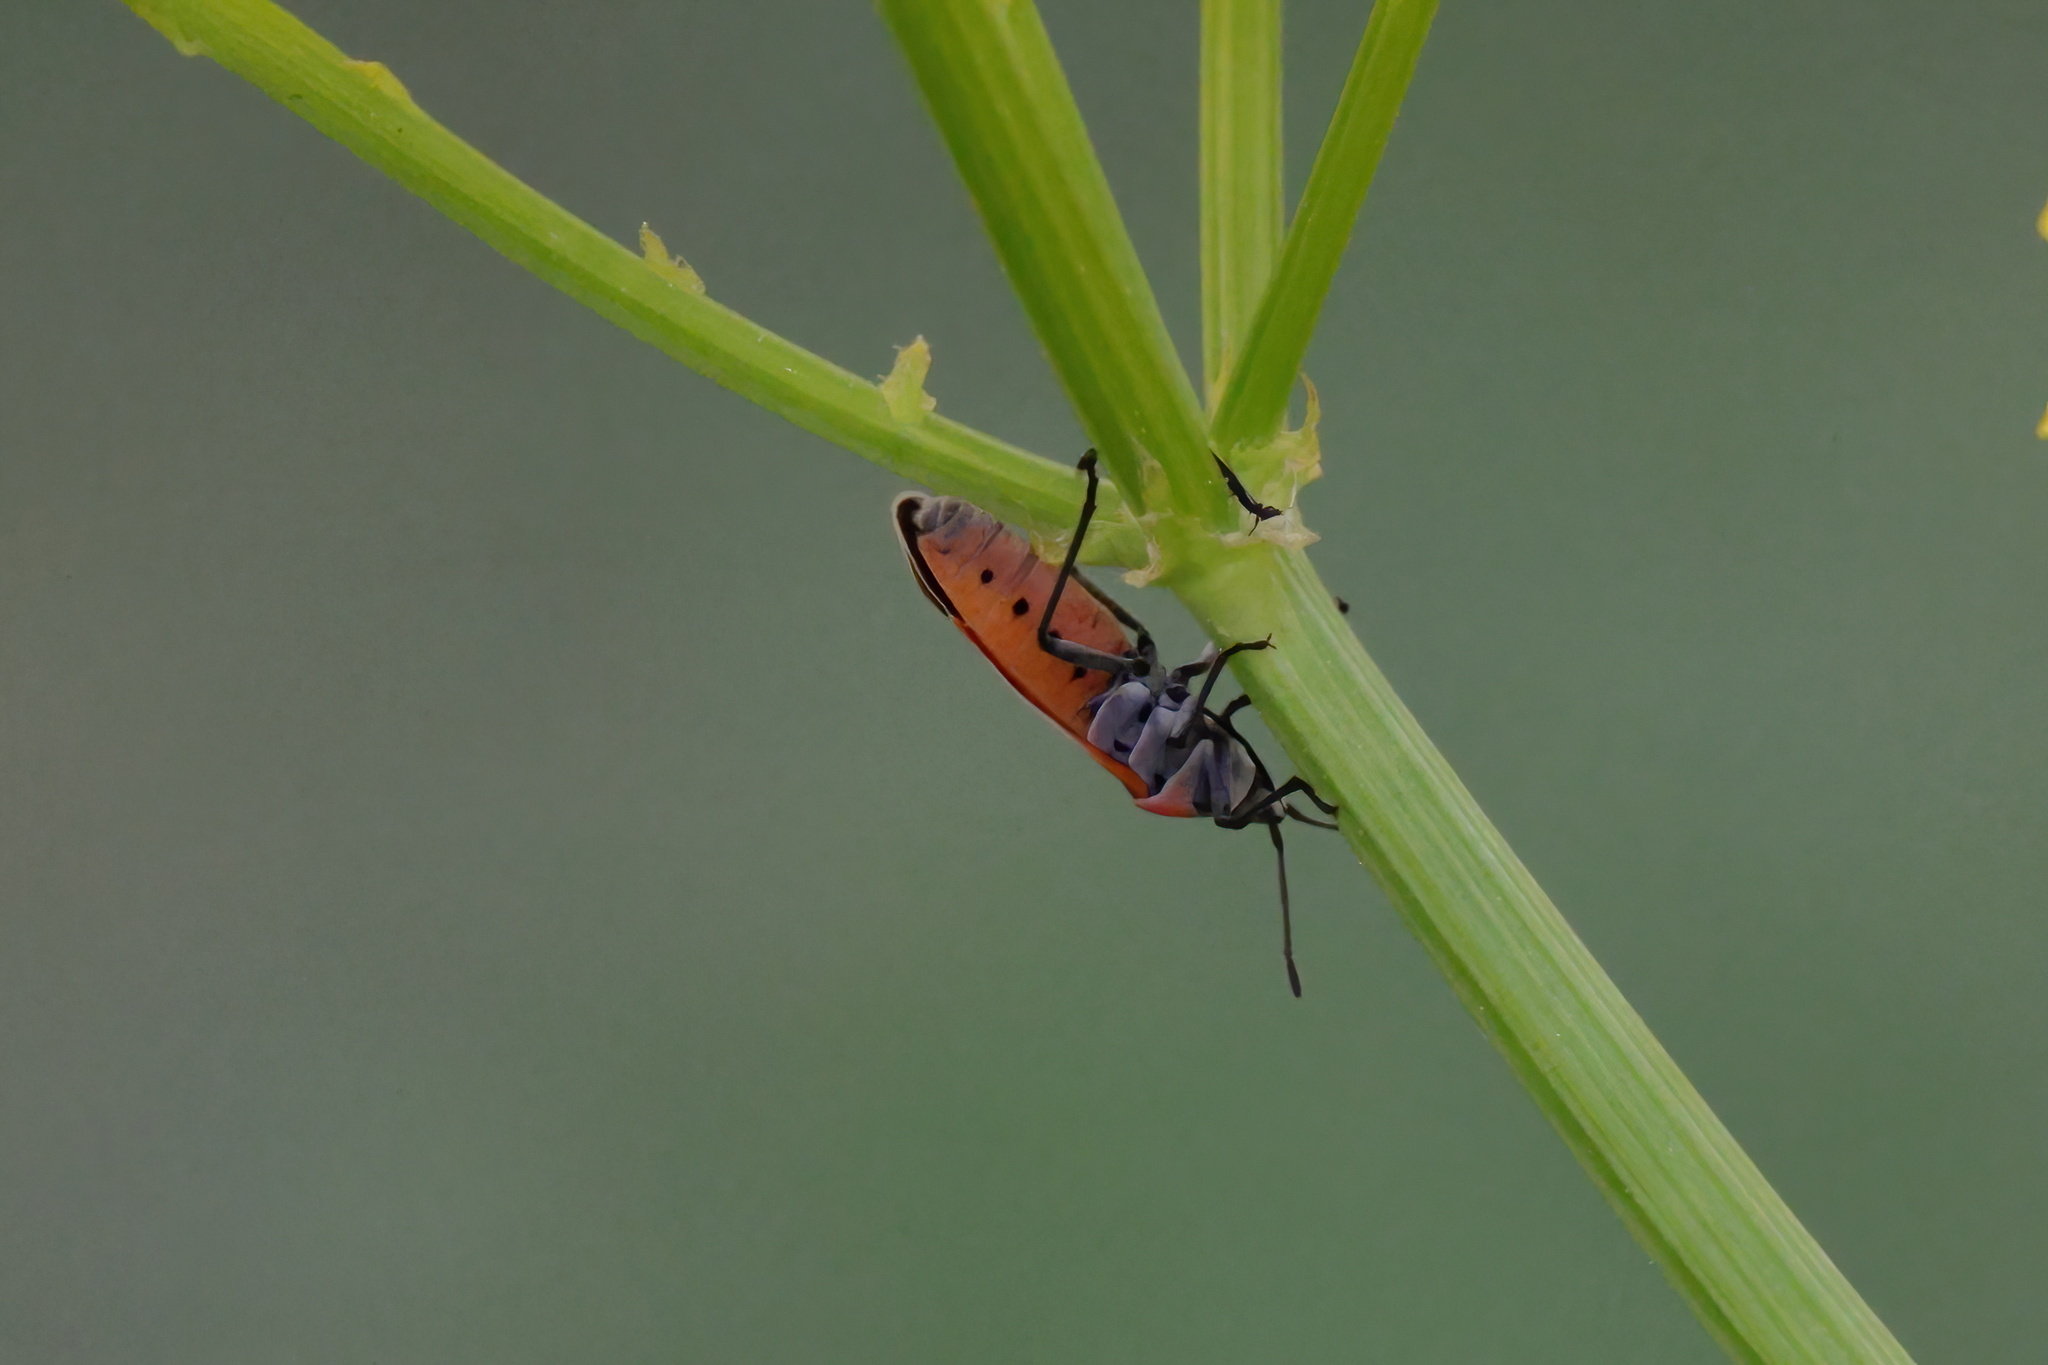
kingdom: Animalia
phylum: Arthropoda
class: Insecta
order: Hemiptera
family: Lygaeidae
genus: Neacoryphus
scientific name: Neacoryphus bicrucis
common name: Lygaeid bug
